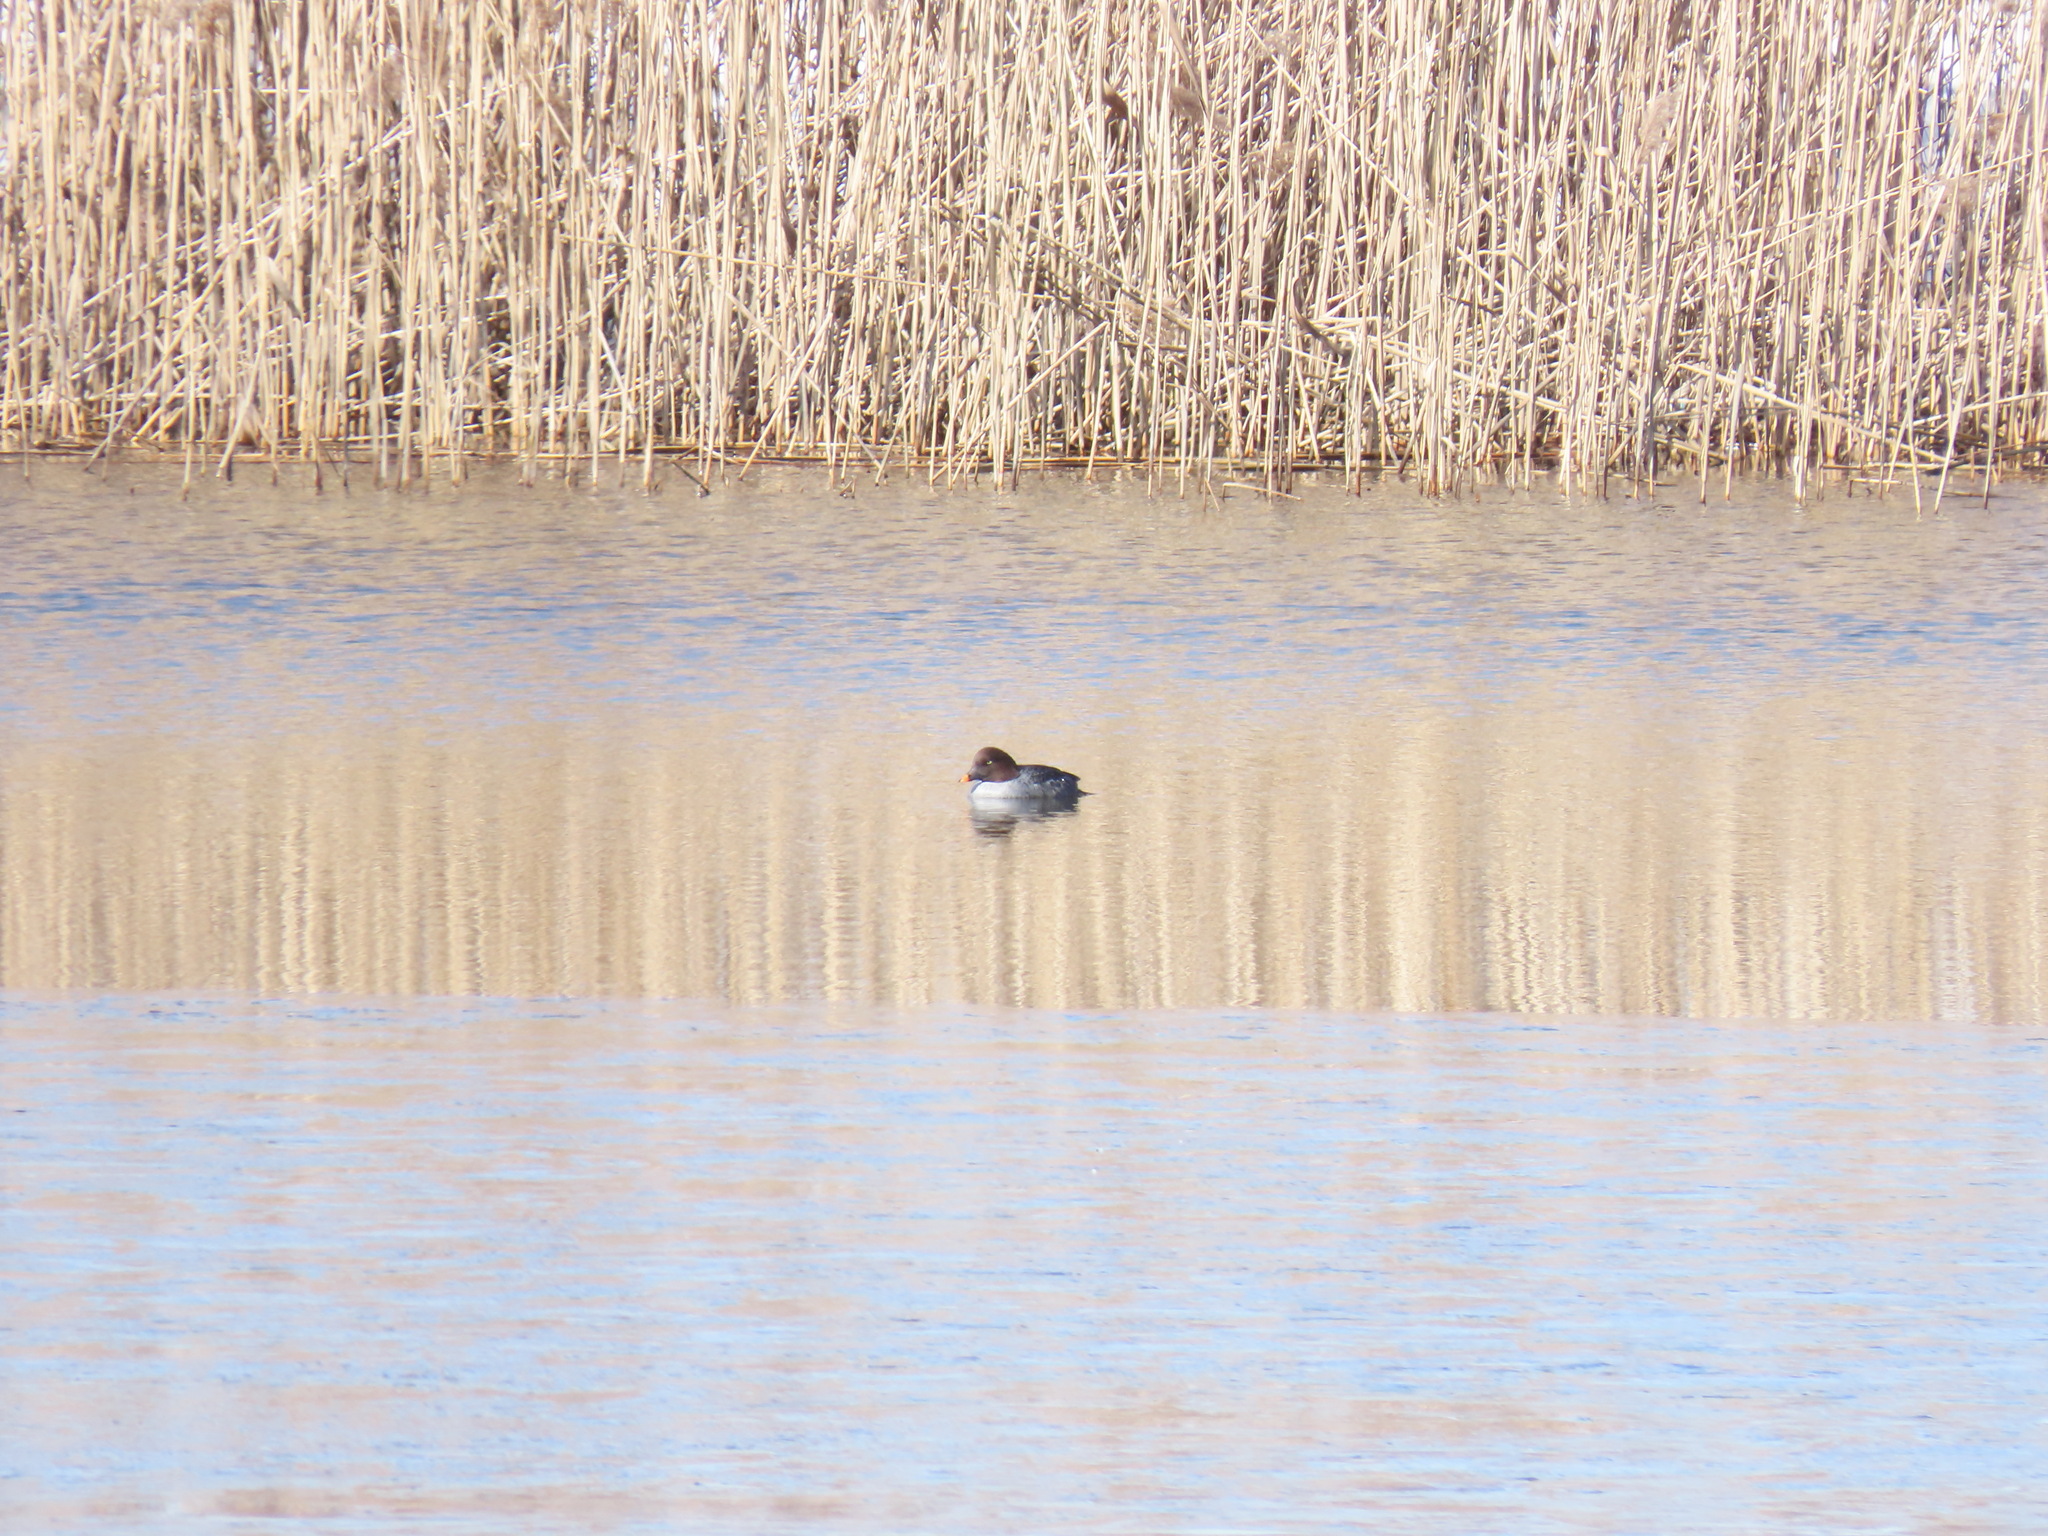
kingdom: Animalia
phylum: Chordata
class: Aves
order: Anseriformes
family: Anatidae
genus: Bucephala
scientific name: Bucephala clangula
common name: Common goldeneye
